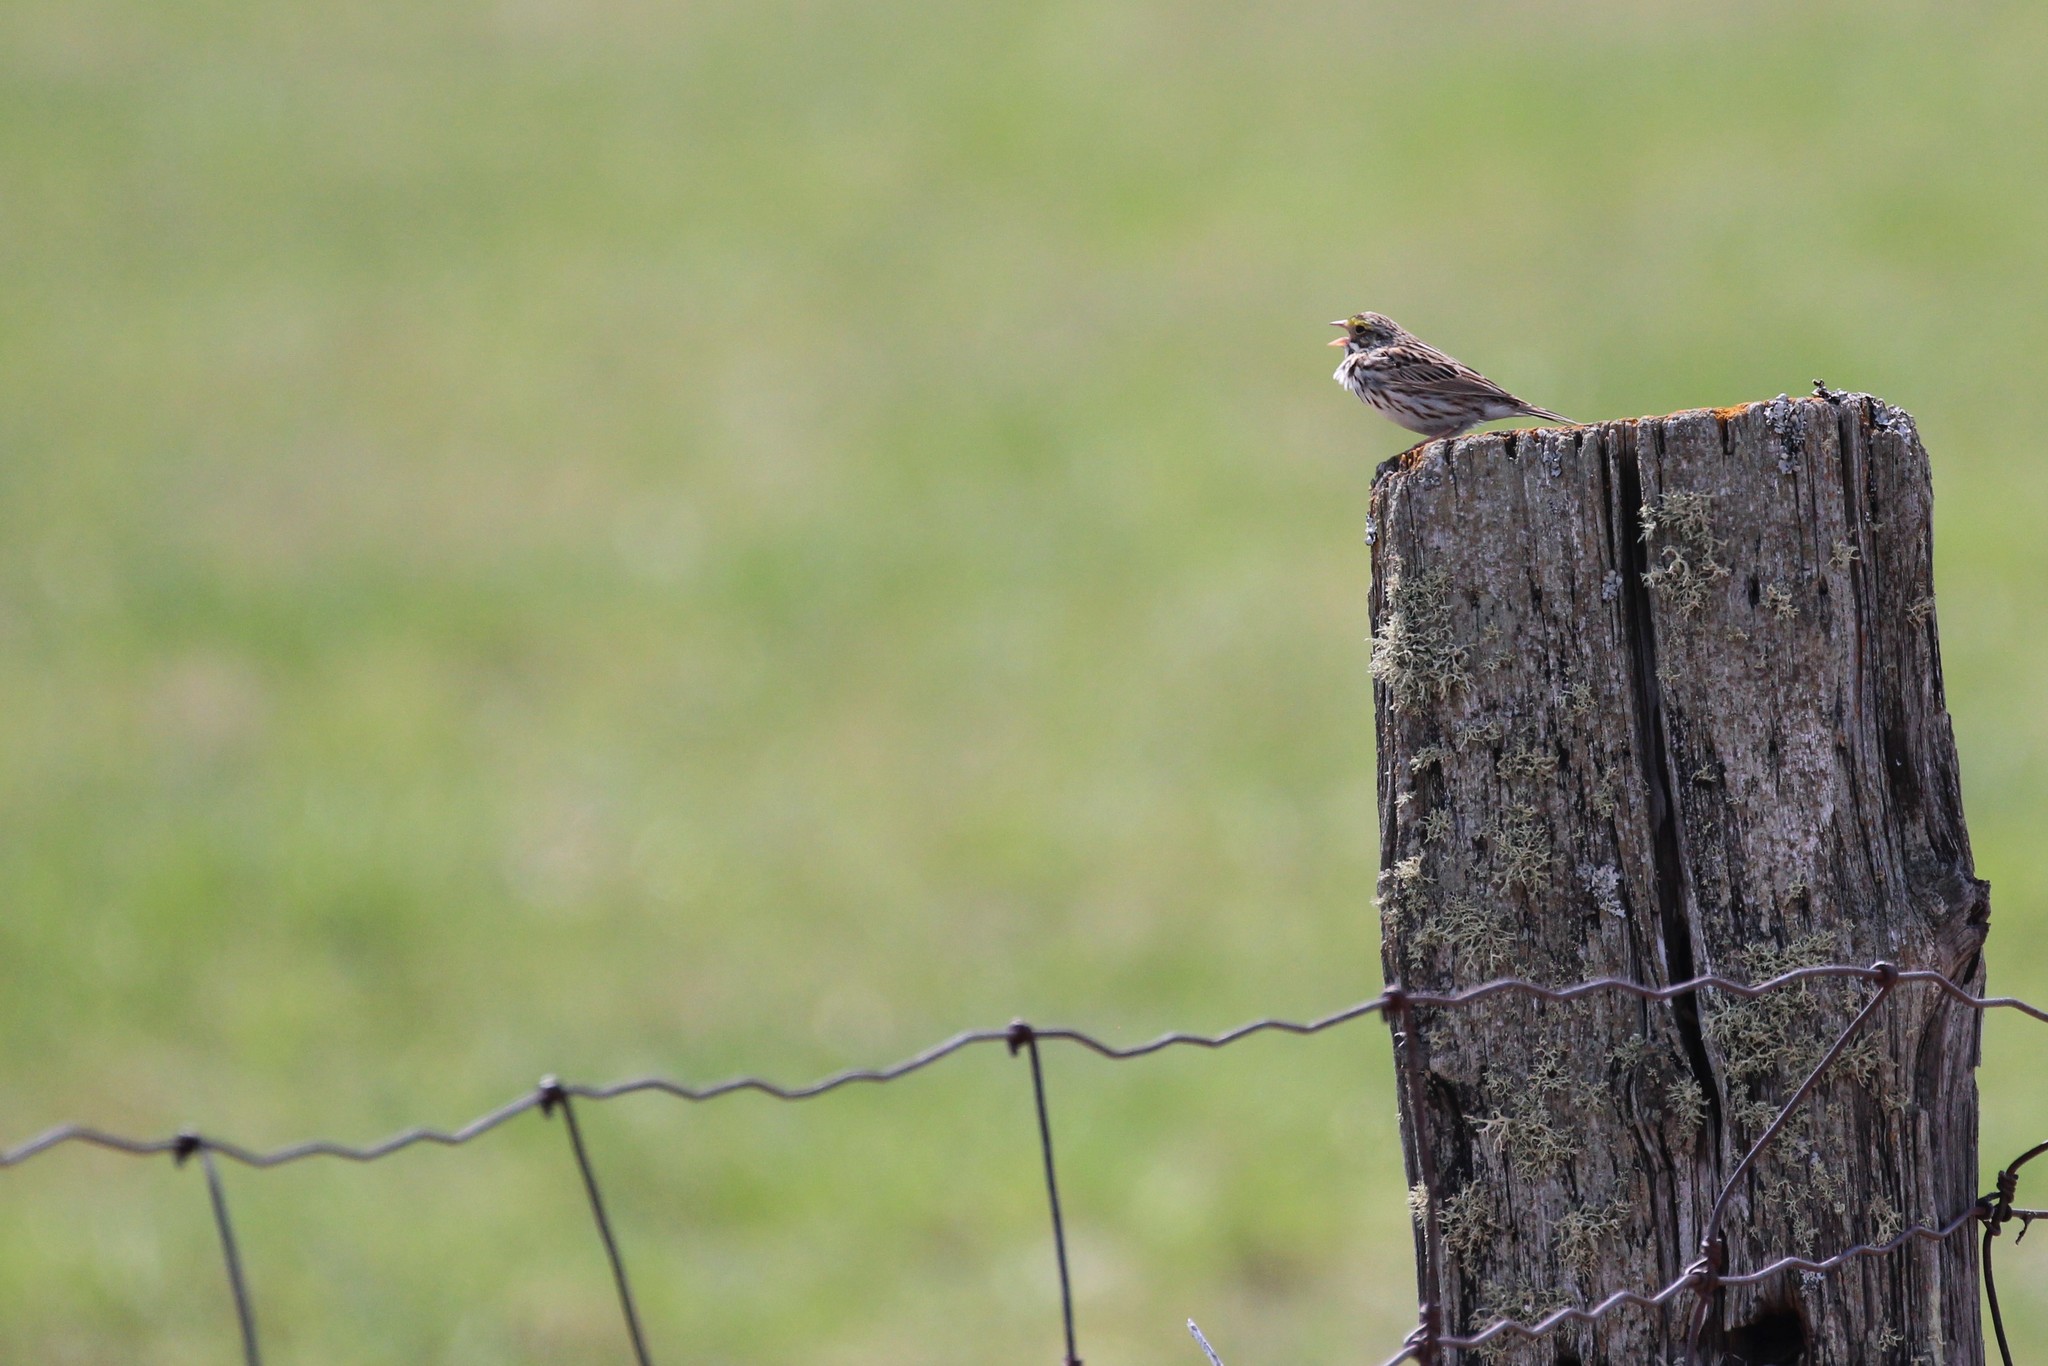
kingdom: Animalia
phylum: Chordata
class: Aves
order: Passeriformes
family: Passerellidae
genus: Passerculus
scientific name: Passerculus sandwichensis
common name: Savannah sparrow
